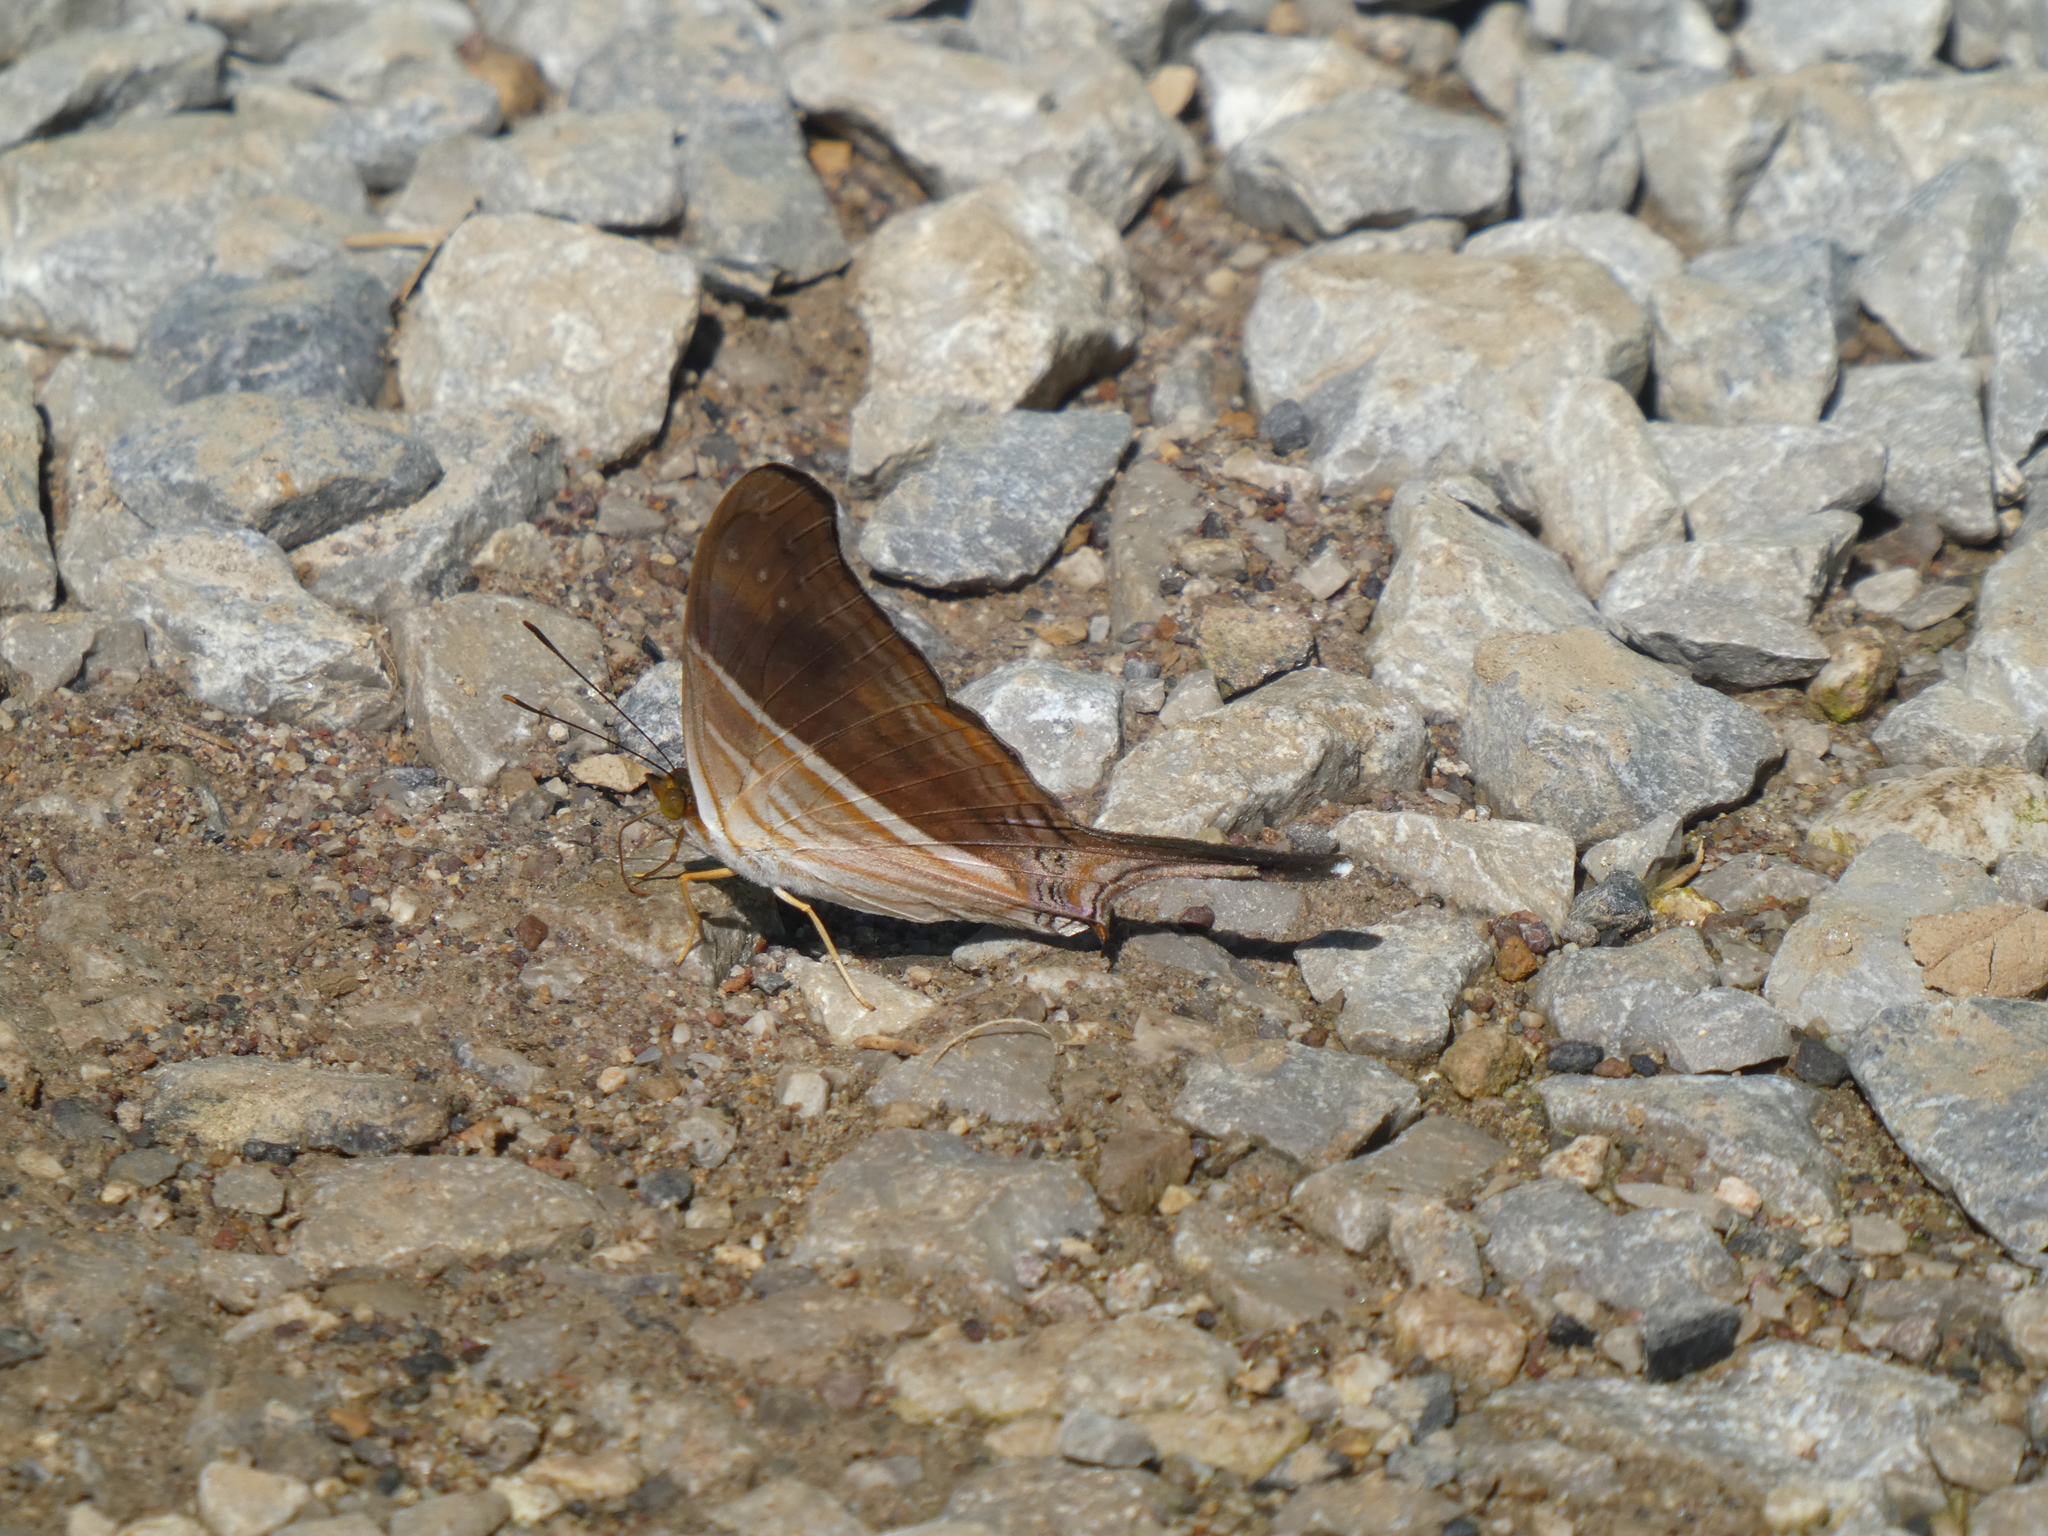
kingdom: Animalia
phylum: Arthropoda
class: Insecta
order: Lepidoptera
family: Nymphalidae
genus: Marpesia
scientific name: Marpesia chiron
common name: Many-banded daggerwing
